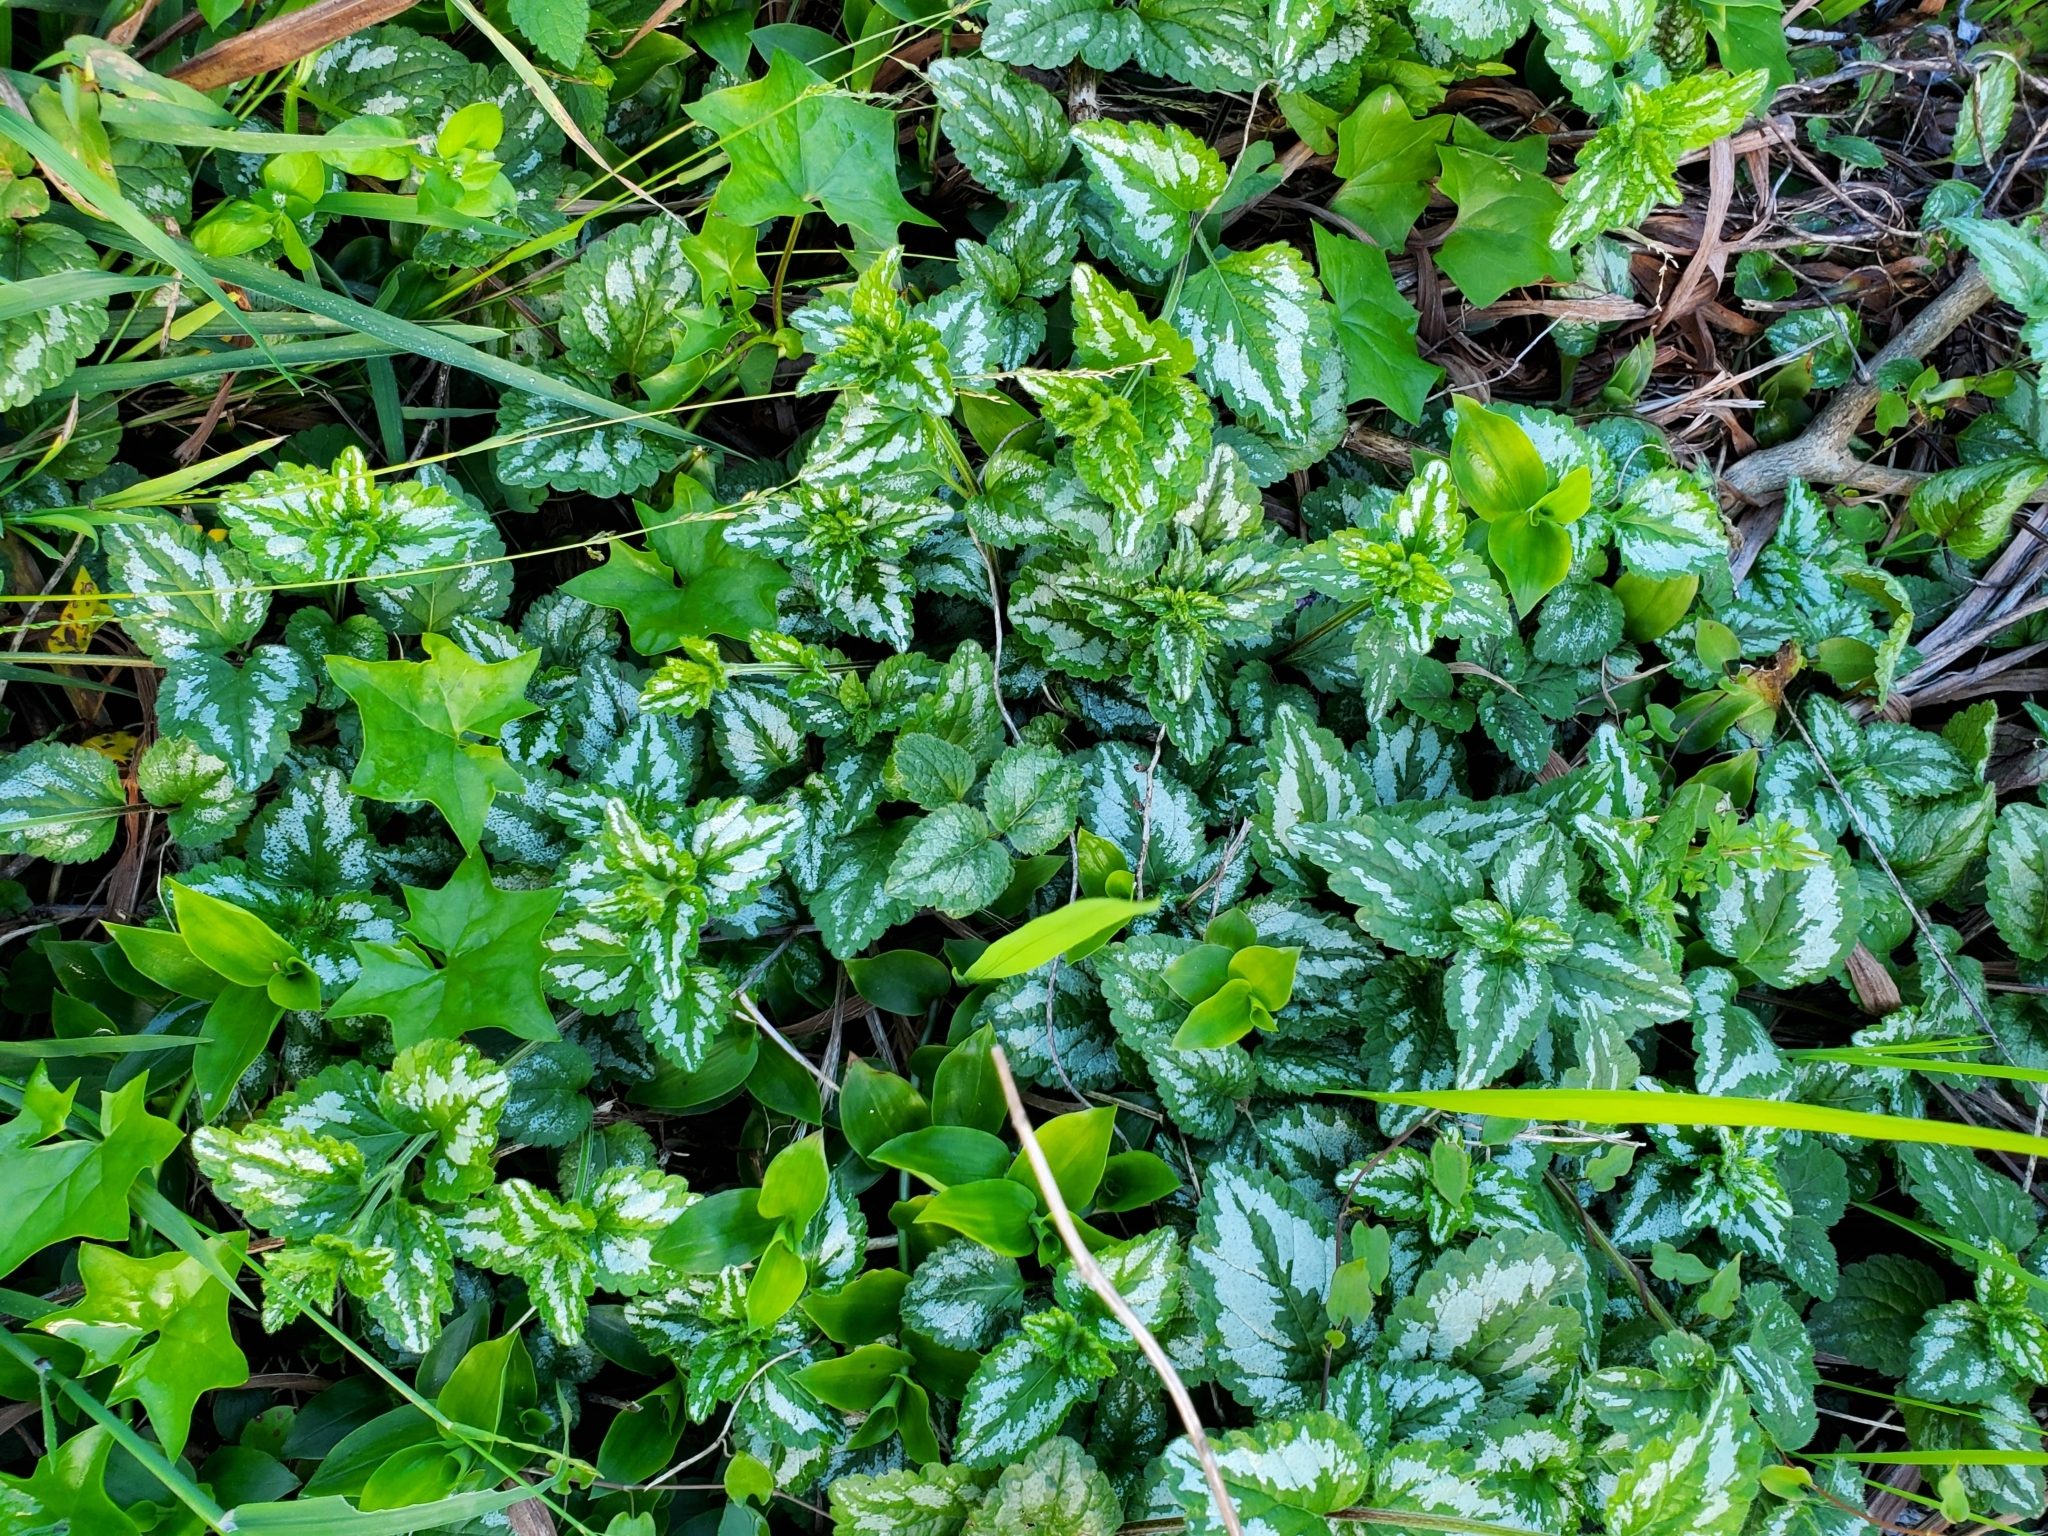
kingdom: Plantae
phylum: Tracheophyta
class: Magnoliopsida
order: Lamiales
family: Lamiaceae
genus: Lamium
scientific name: Lamium galeobdolon
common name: Yellow archangel
